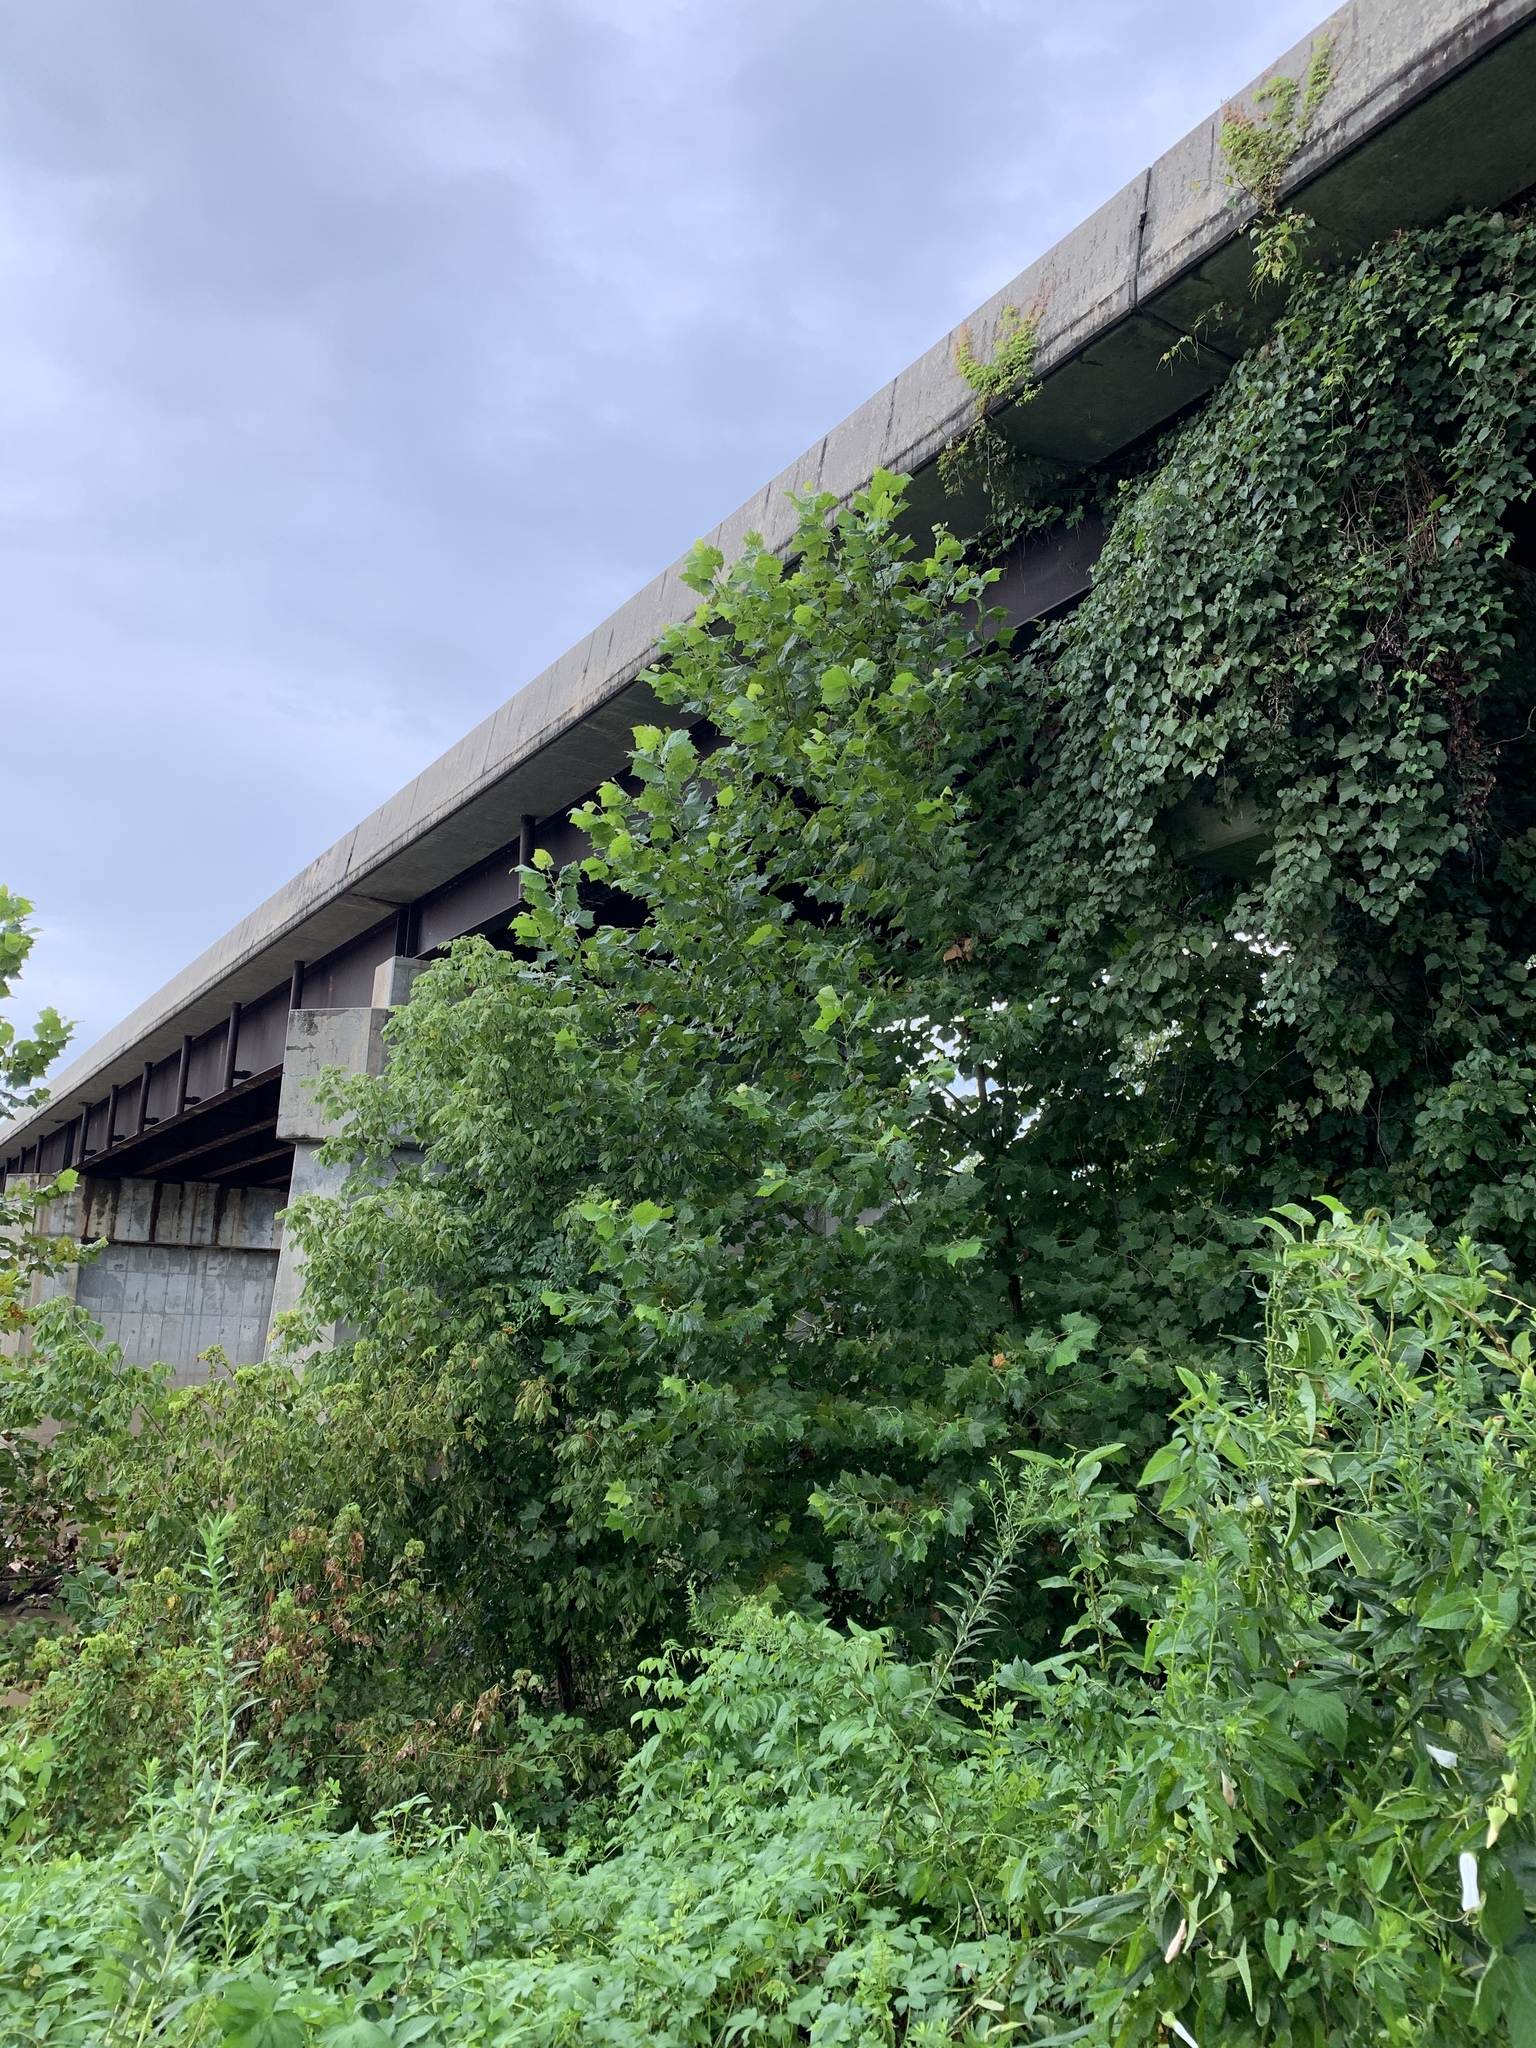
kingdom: Plantae
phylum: Tracheophyta
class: Magnoliopsida
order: Proteales
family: Platanaceae
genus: Platanus
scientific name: Platanus occidentalis
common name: American sycamore
